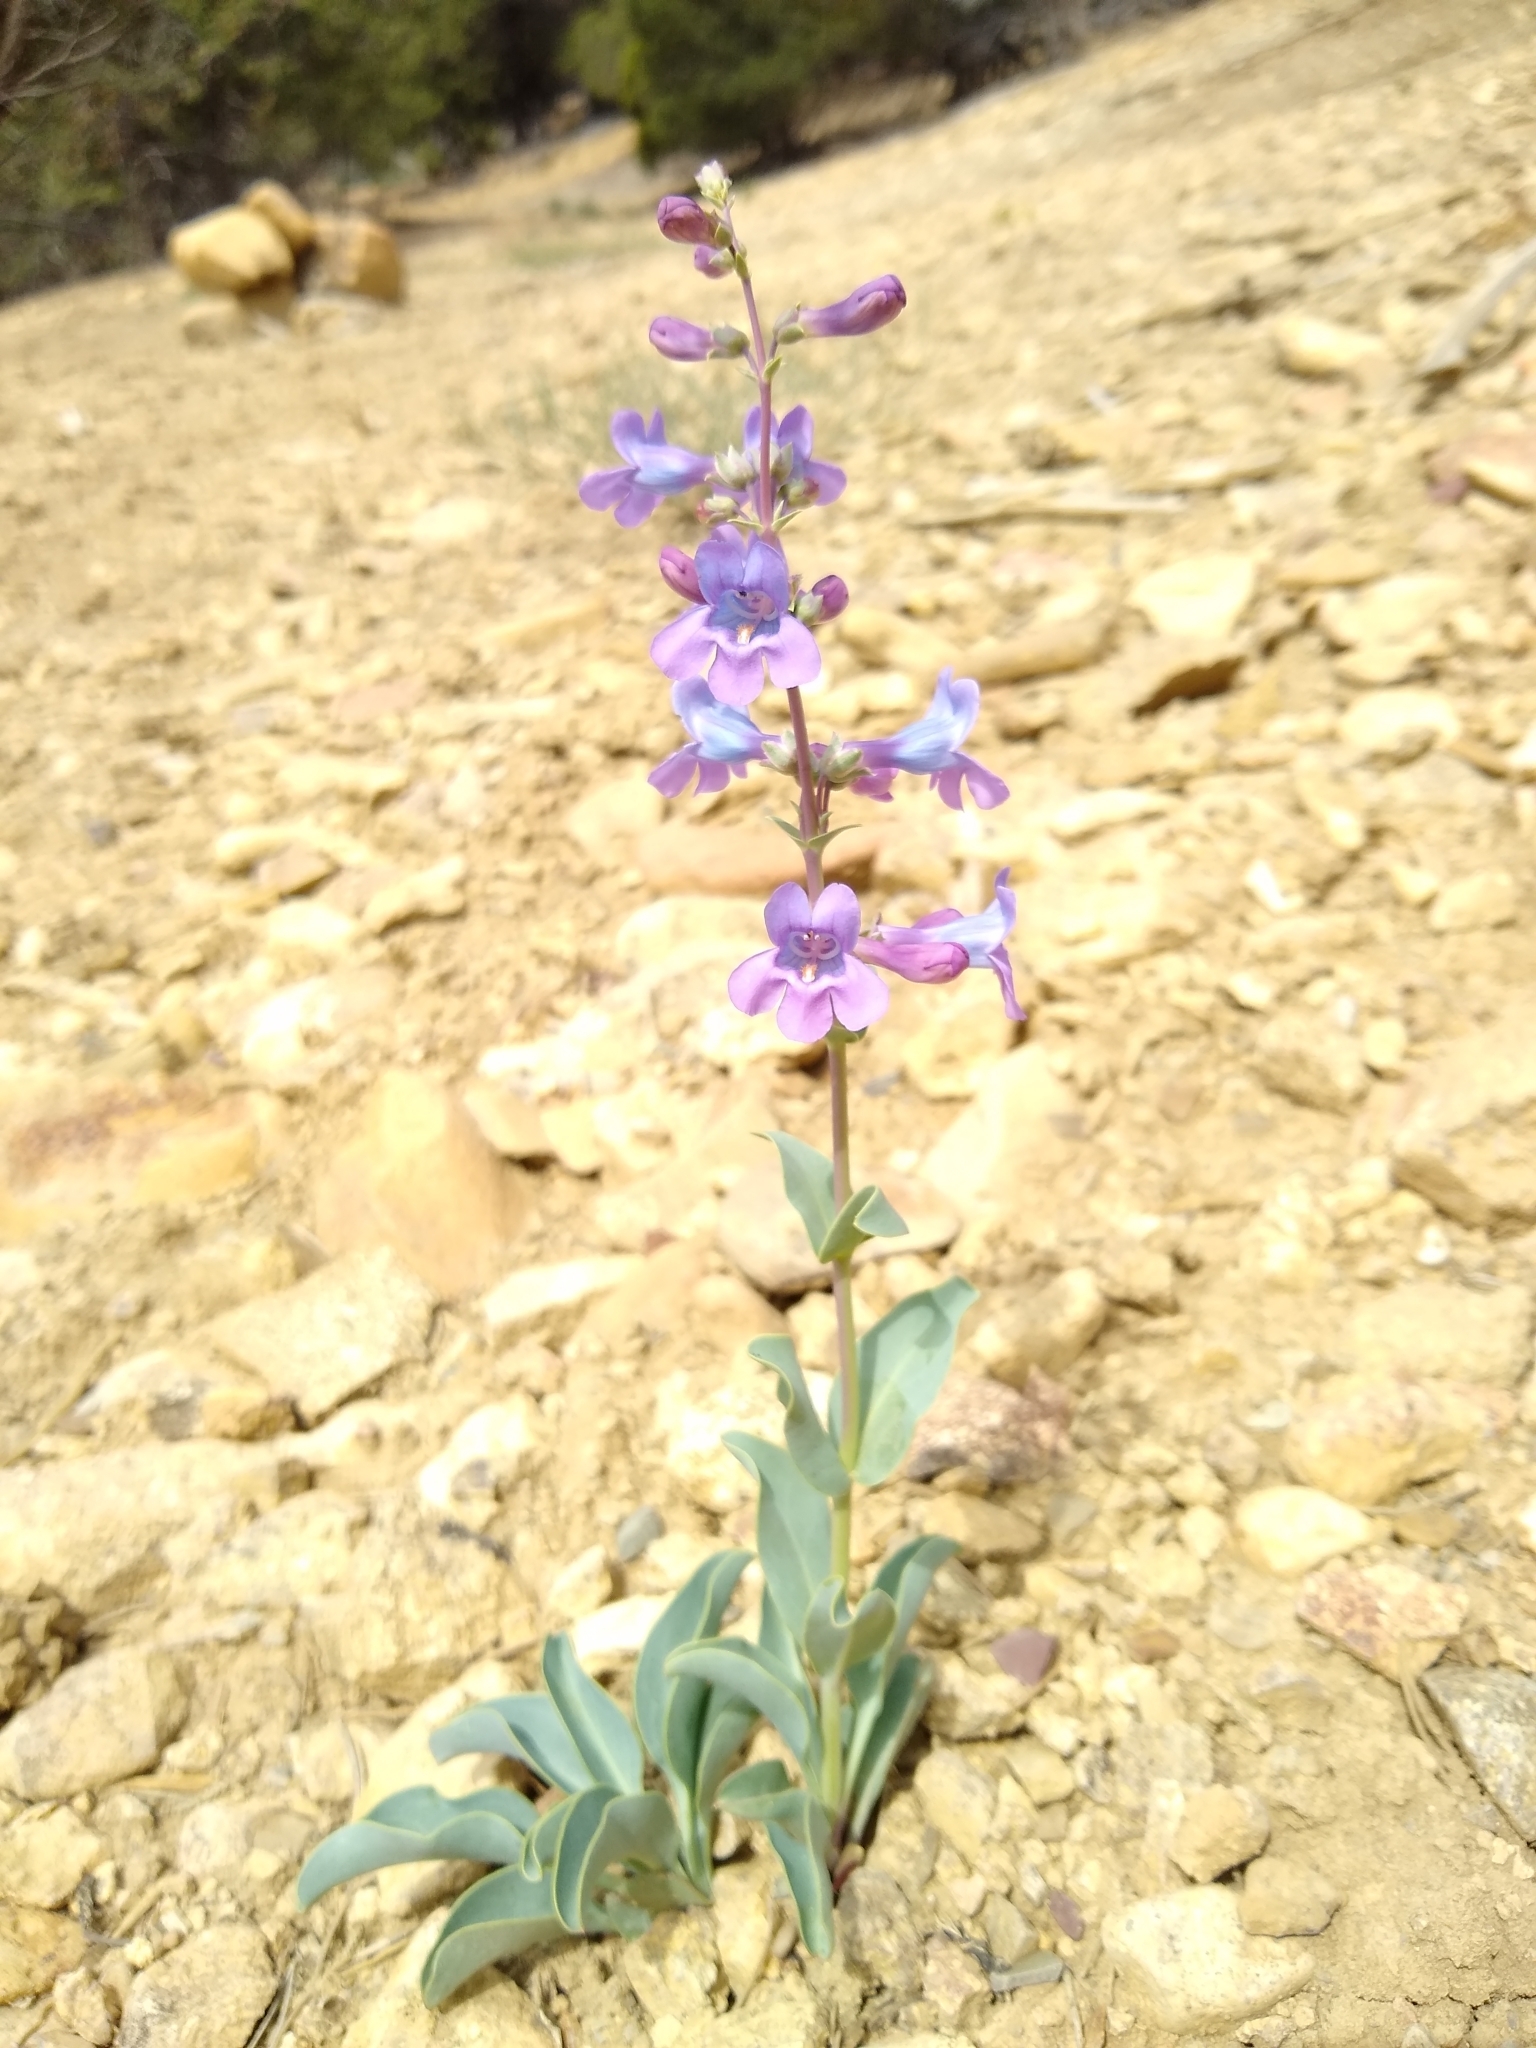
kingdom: Plantae
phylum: Tracheophyta
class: Magnoliopsida
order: Lamiales
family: Plantaginaceae
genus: Penstemon
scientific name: Penstemon lentus
